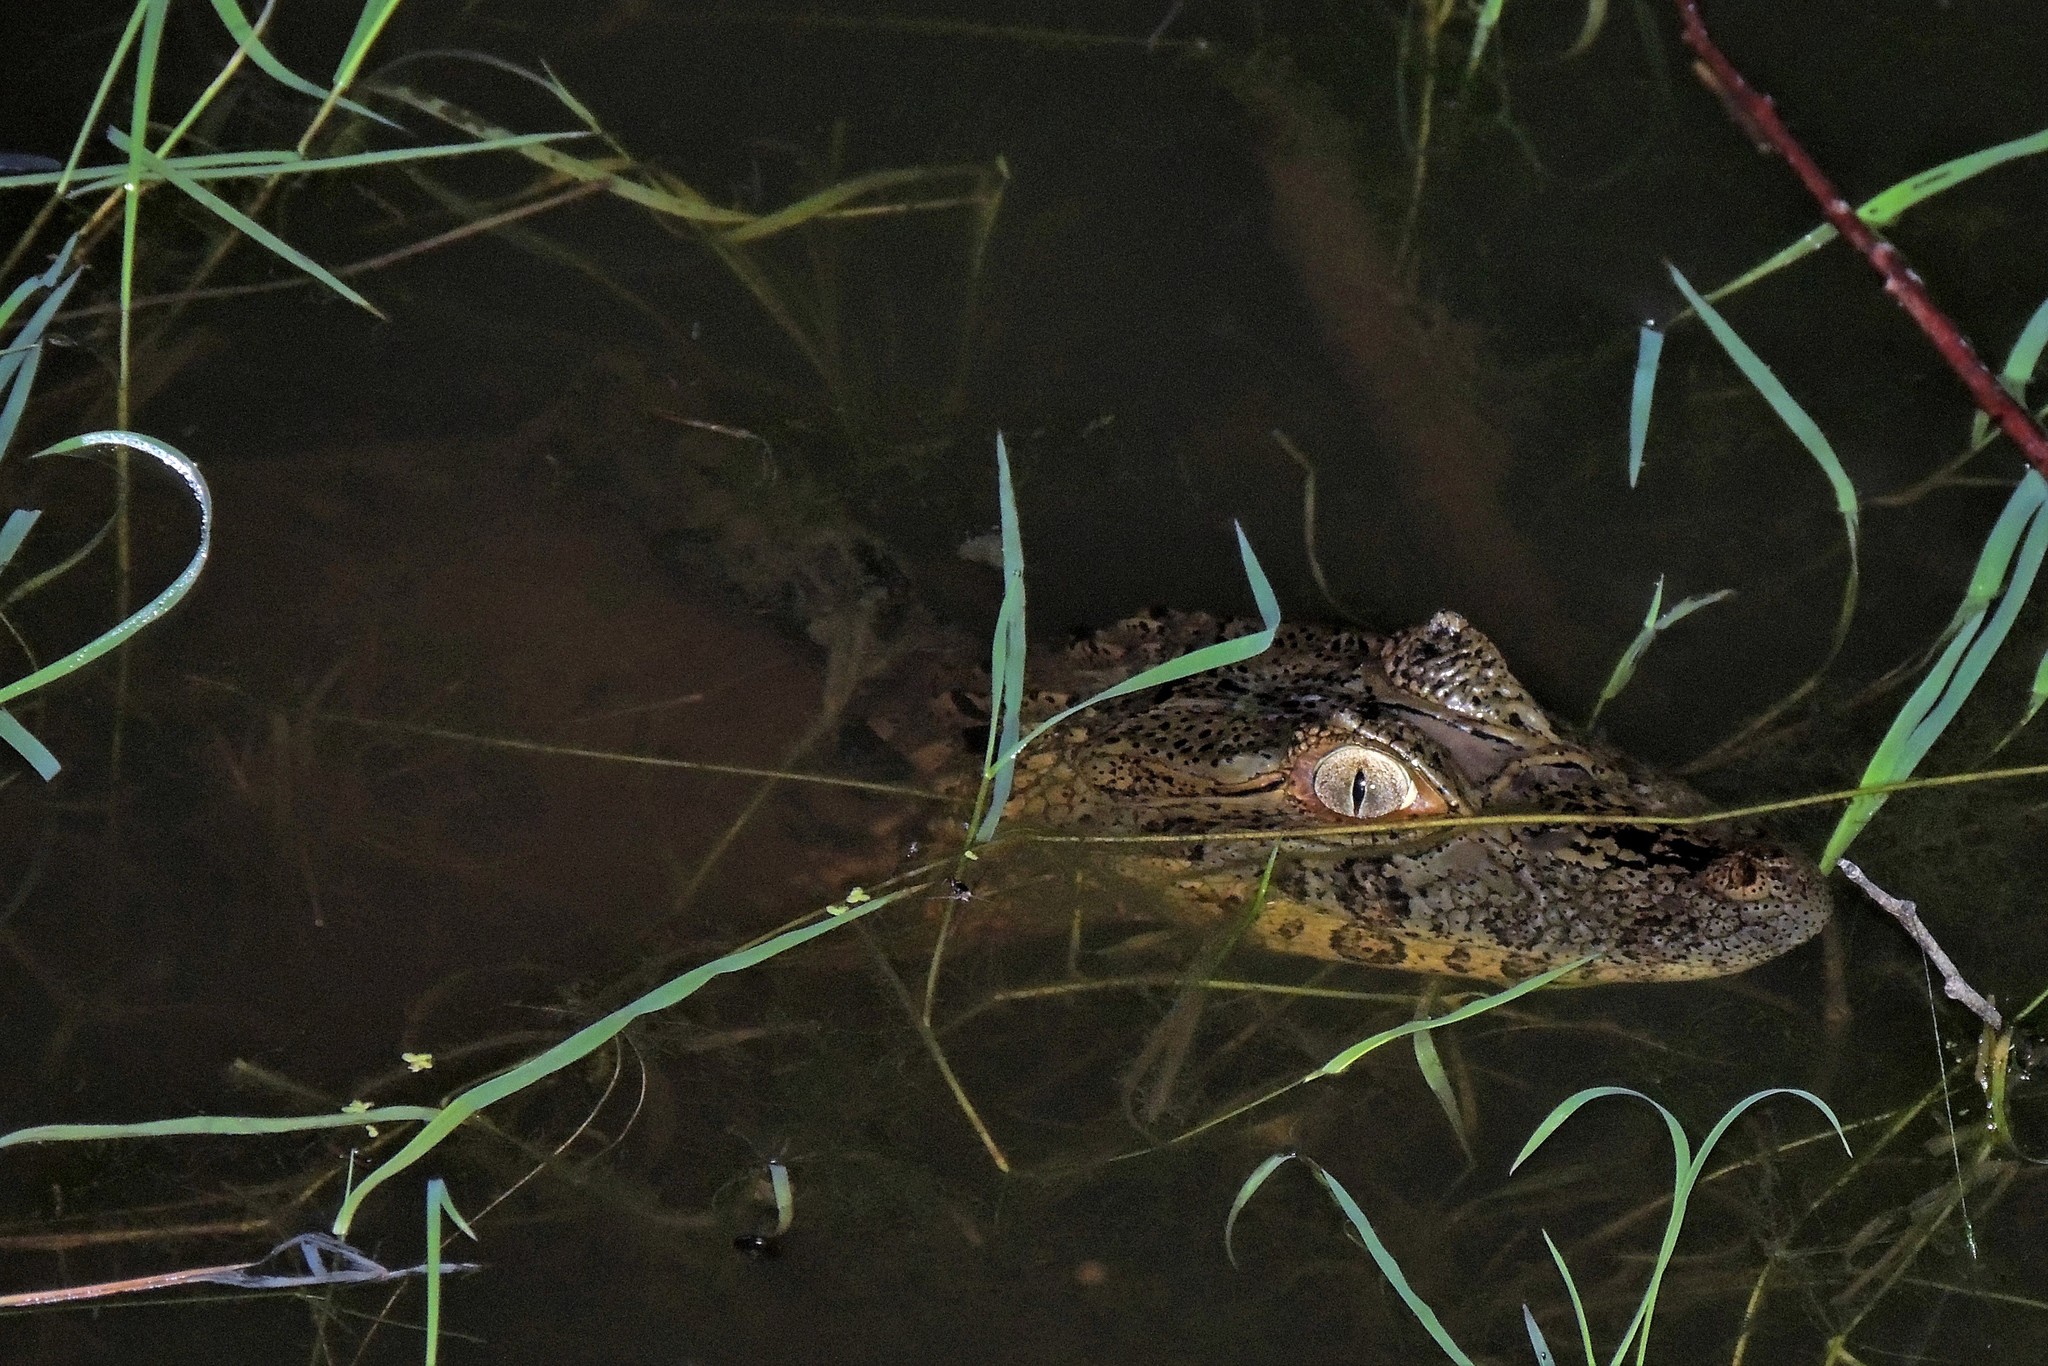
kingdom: Animalia
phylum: Chordata
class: Crocodylia
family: Alligatoridae
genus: Caiman
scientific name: Caiman latirostris
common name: Broad-snouted caiman
